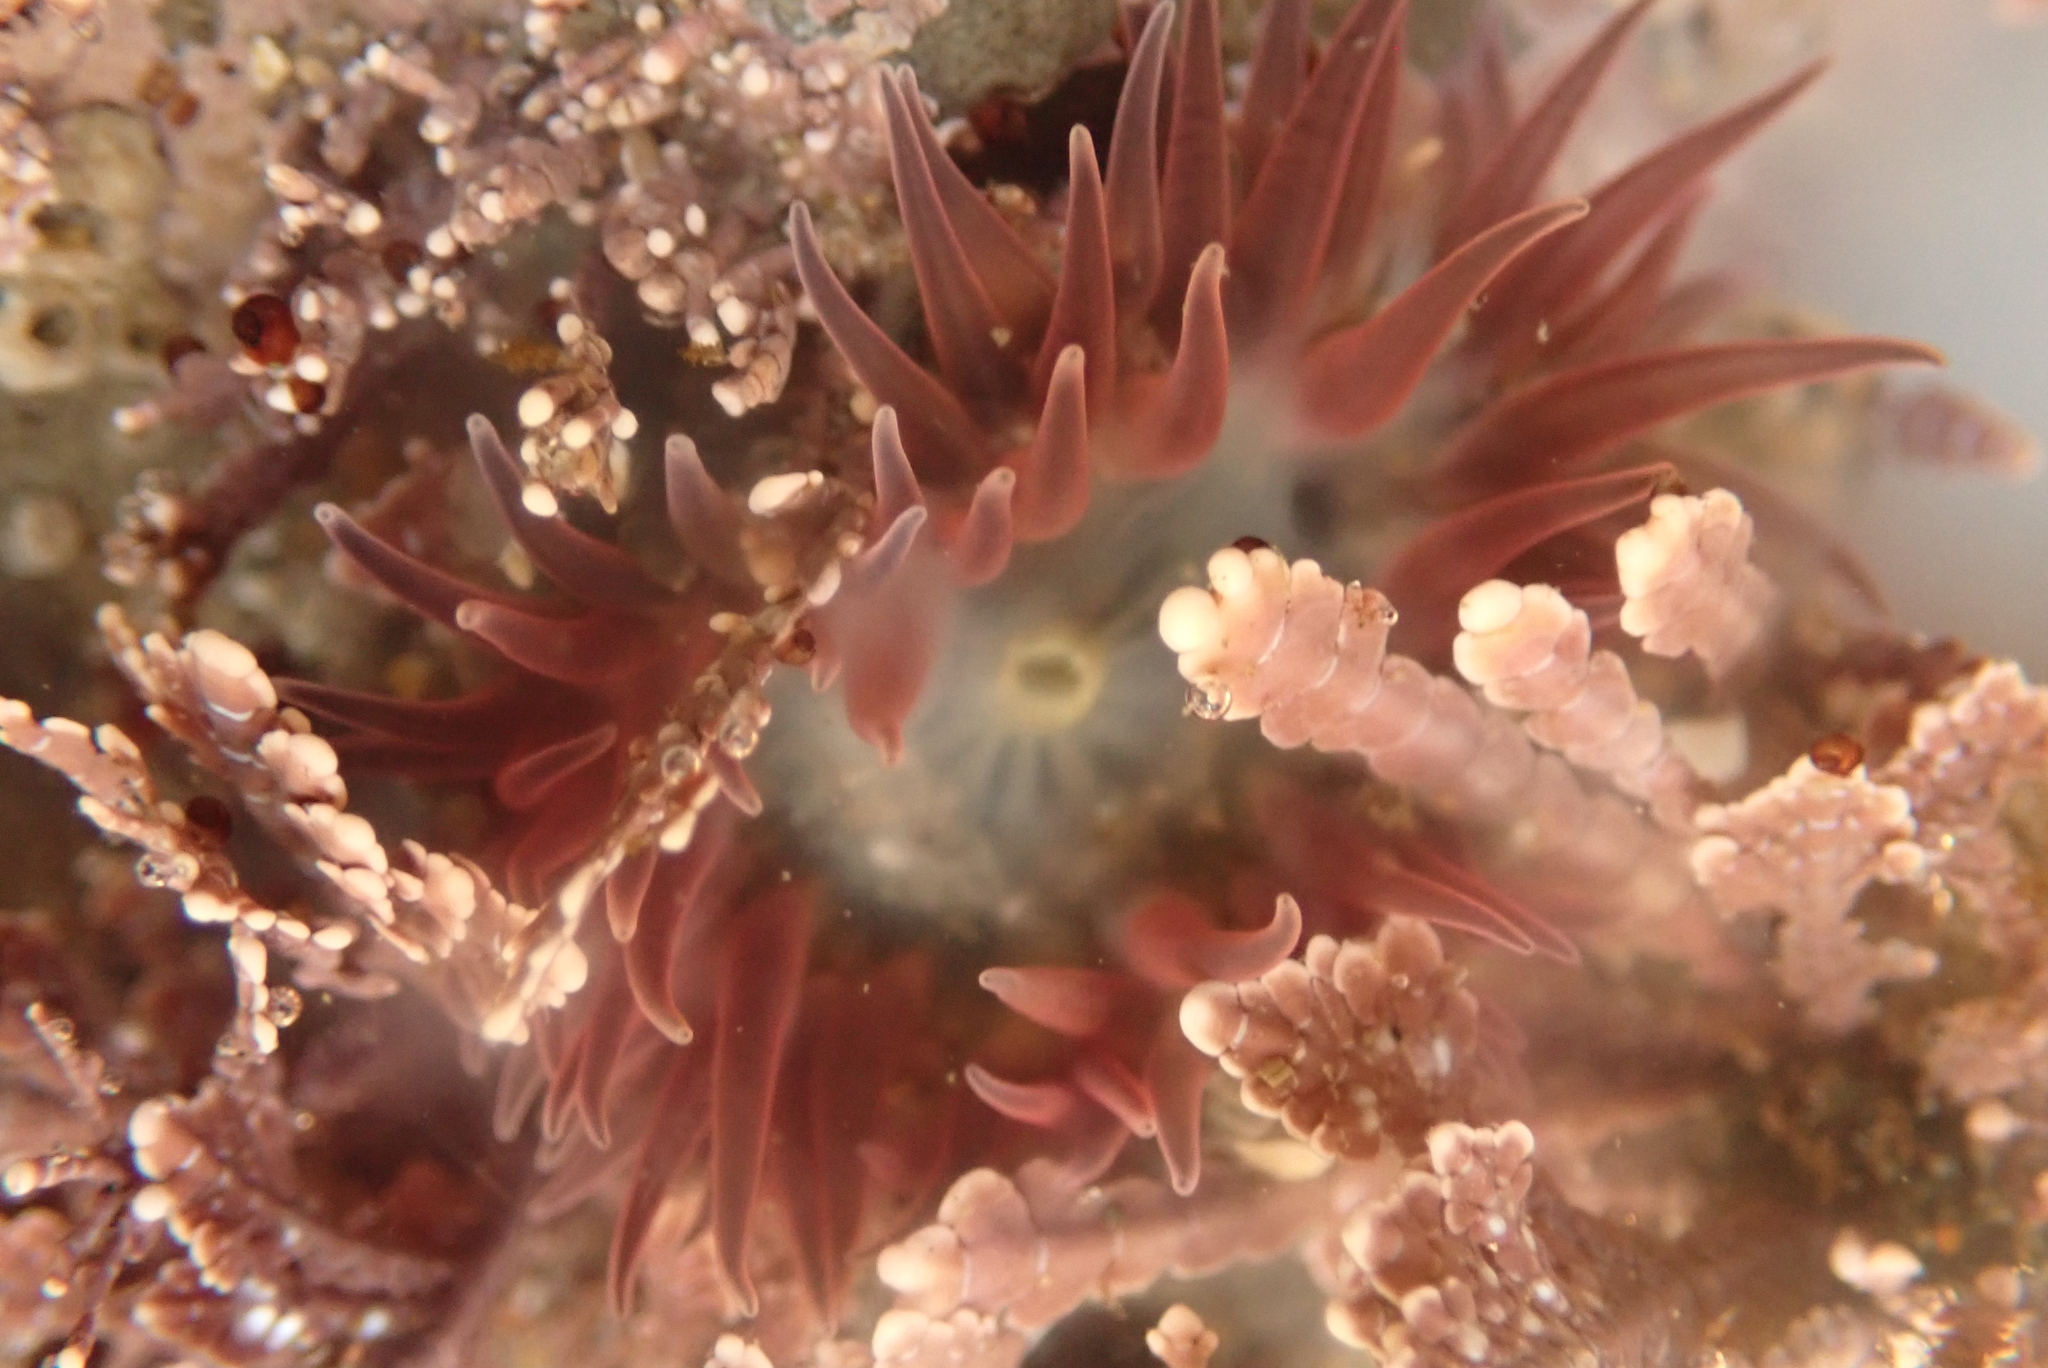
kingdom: Animalia
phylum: Cnidaria
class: Anthozoa
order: Actiniaria
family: Actiniidae
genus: Anthopleura
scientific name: Anthopleura artemisia
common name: Buried sea anemone
